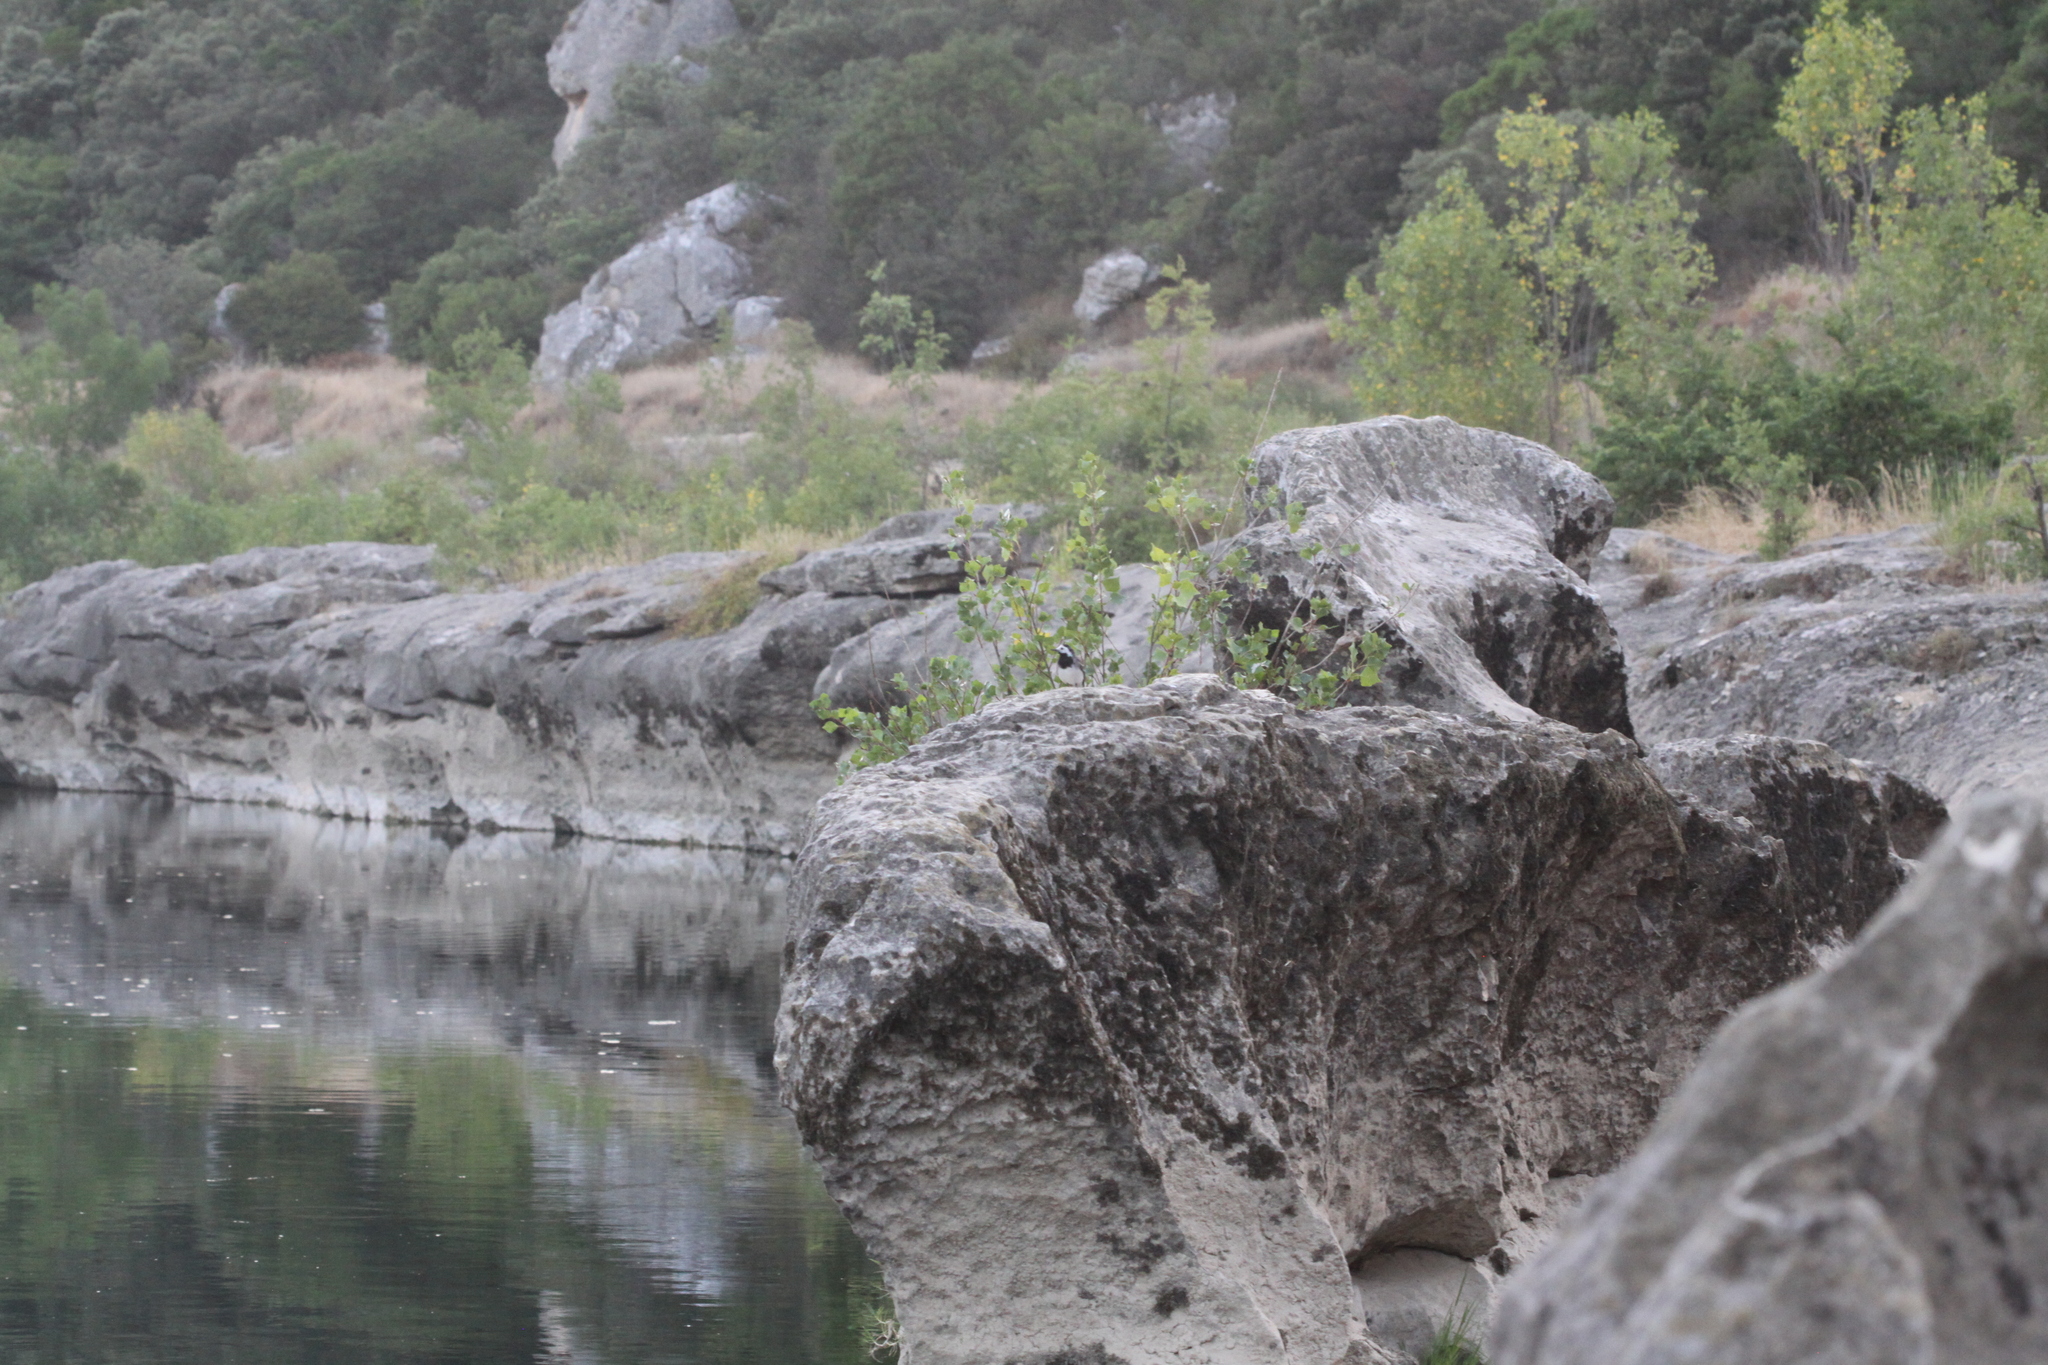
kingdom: Animalia
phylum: Chordata
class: Aves
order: Passeriformes
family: Motacillidae
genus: Motacilla
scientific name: Motacilla alba
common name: White wagtail
